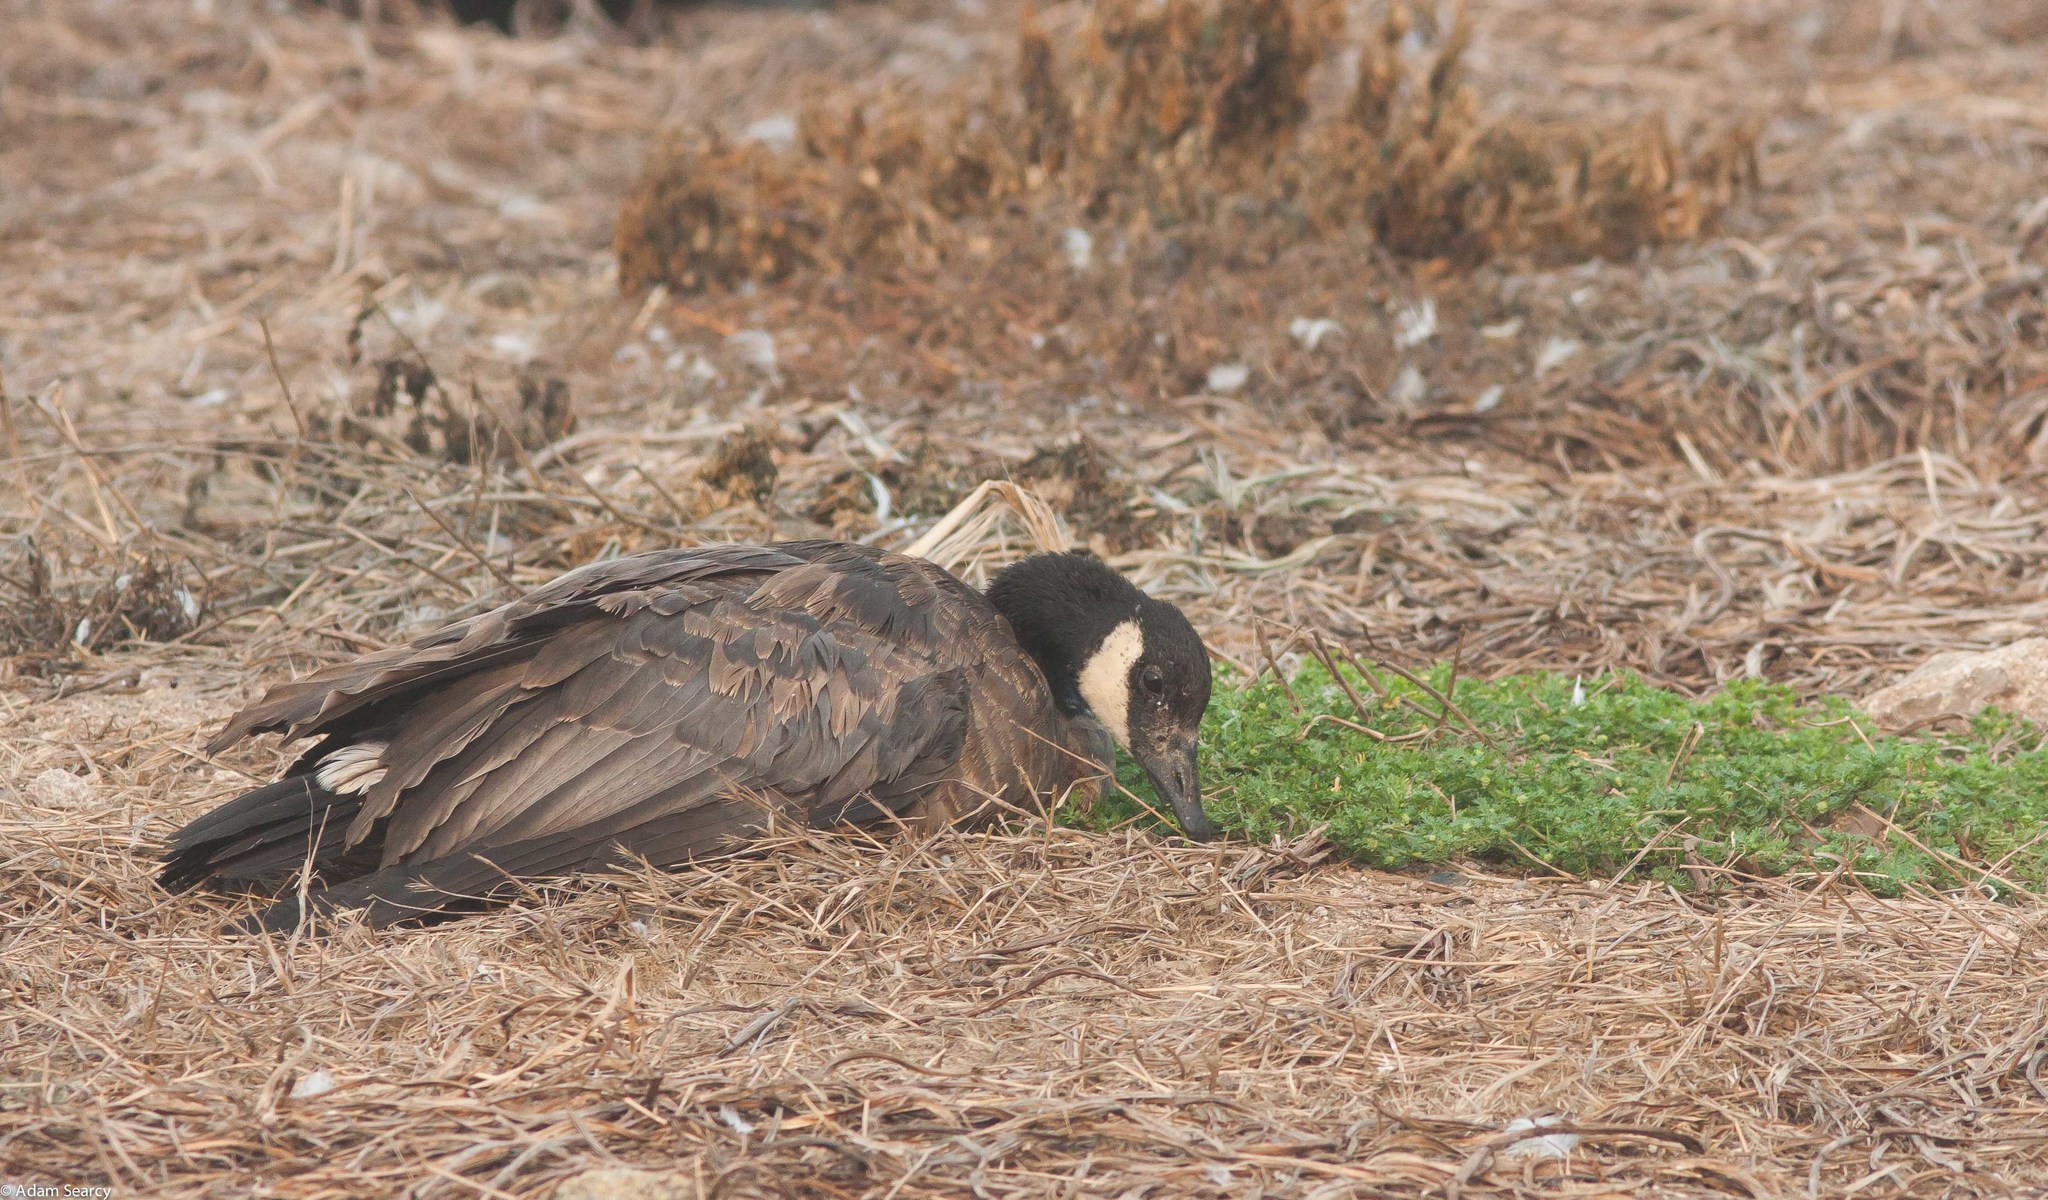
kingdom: Animalia
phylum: Chordata
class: Aves
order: Anseriformes
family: Anatidae
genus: Branta
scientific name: Branta canadensis
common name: Canada goose
